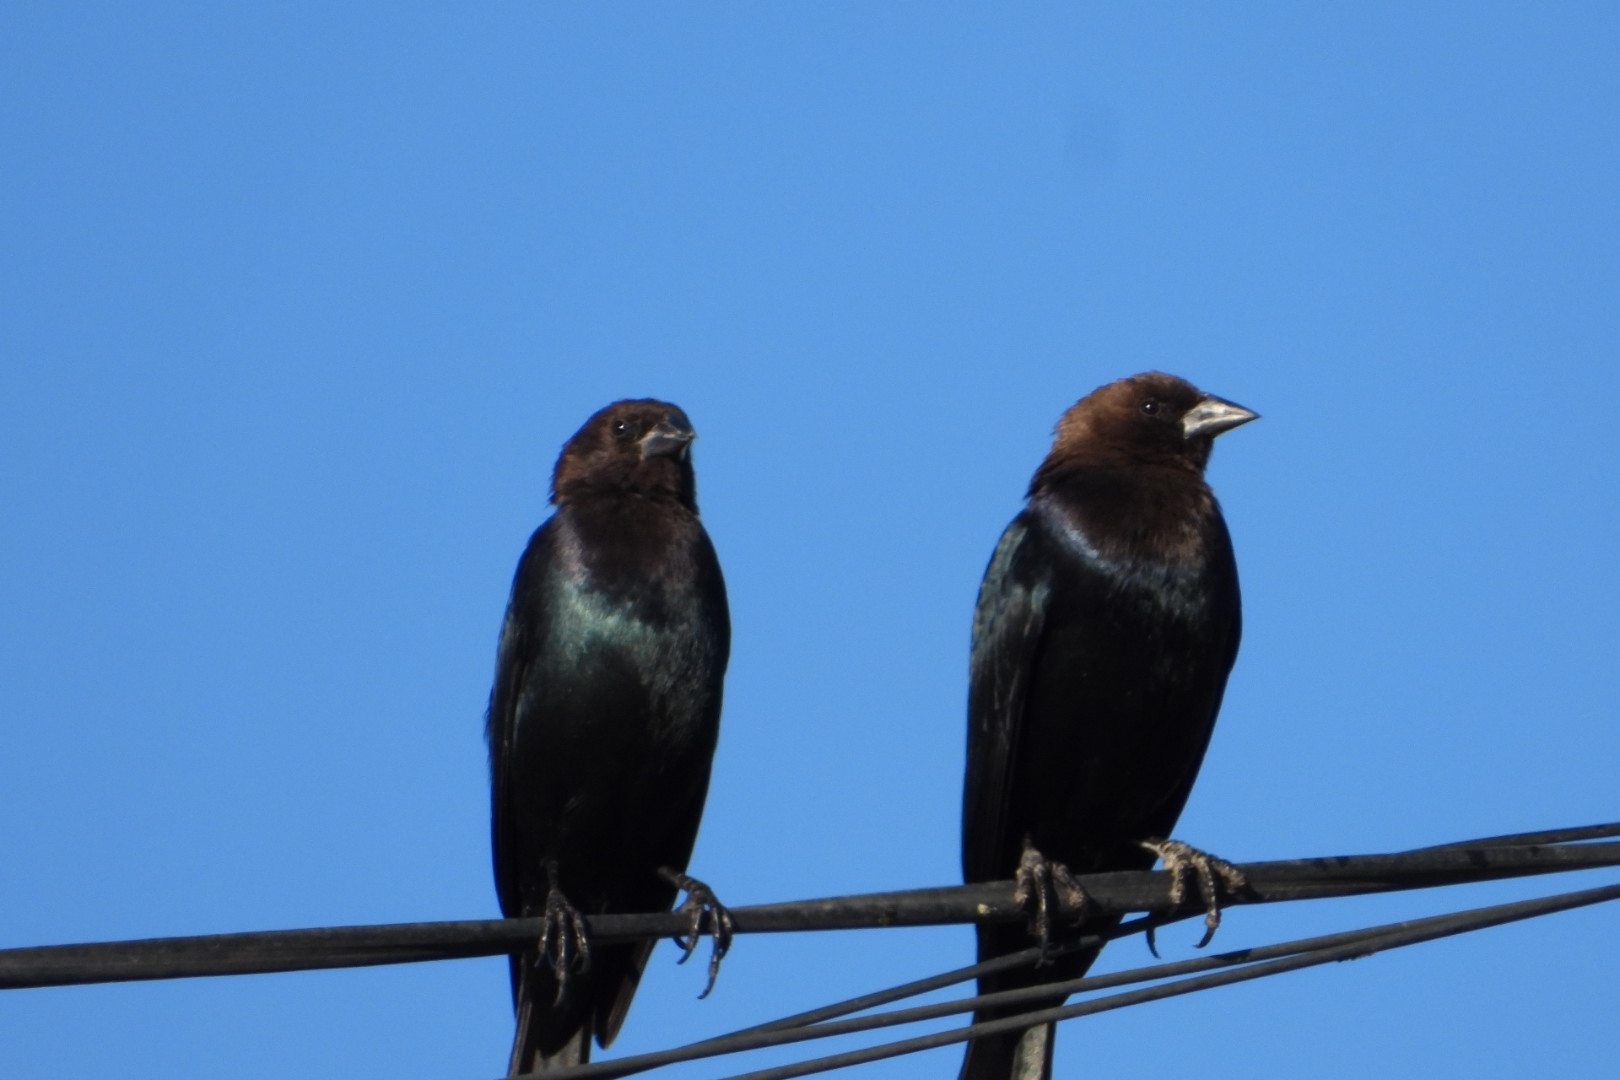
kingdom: Animalia
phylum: Chordata
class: Aves
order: Passeriformes
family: Icteridae
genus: Molothrus
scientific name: Molothrus ater
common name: Brown-headed cowbird
